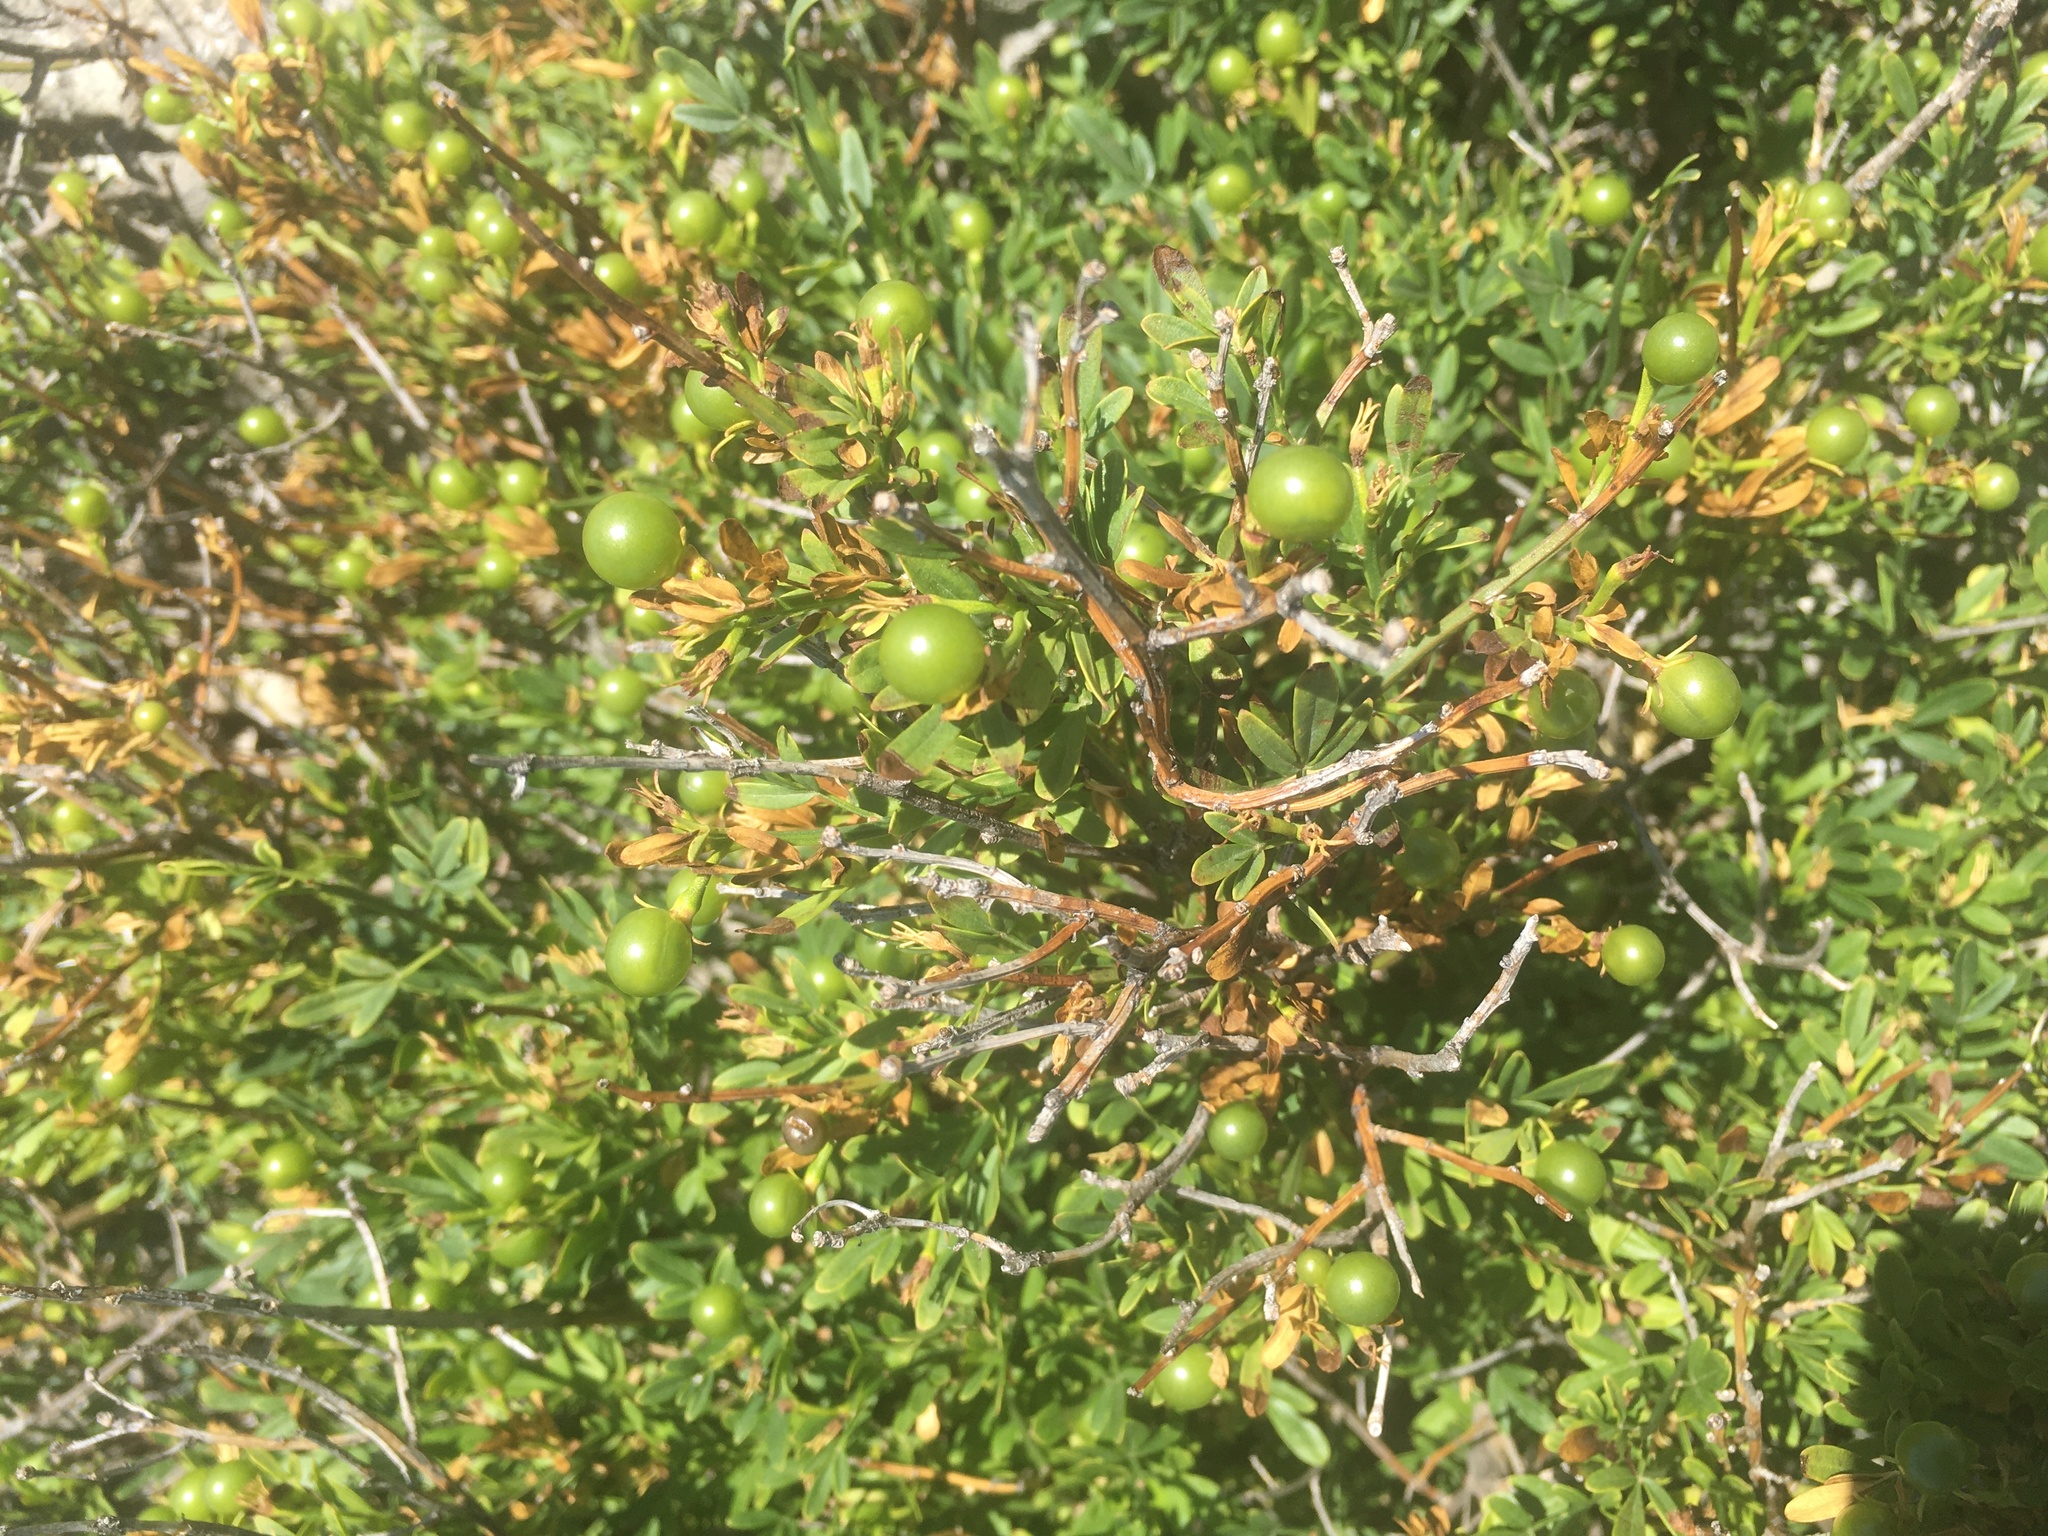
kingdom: Plantae
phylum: Tracheophyta
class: Magnoliopsida
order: Lamiales
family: Oleaceae
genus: Chrysojasminum
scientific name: Chrysojasminum fruticans
